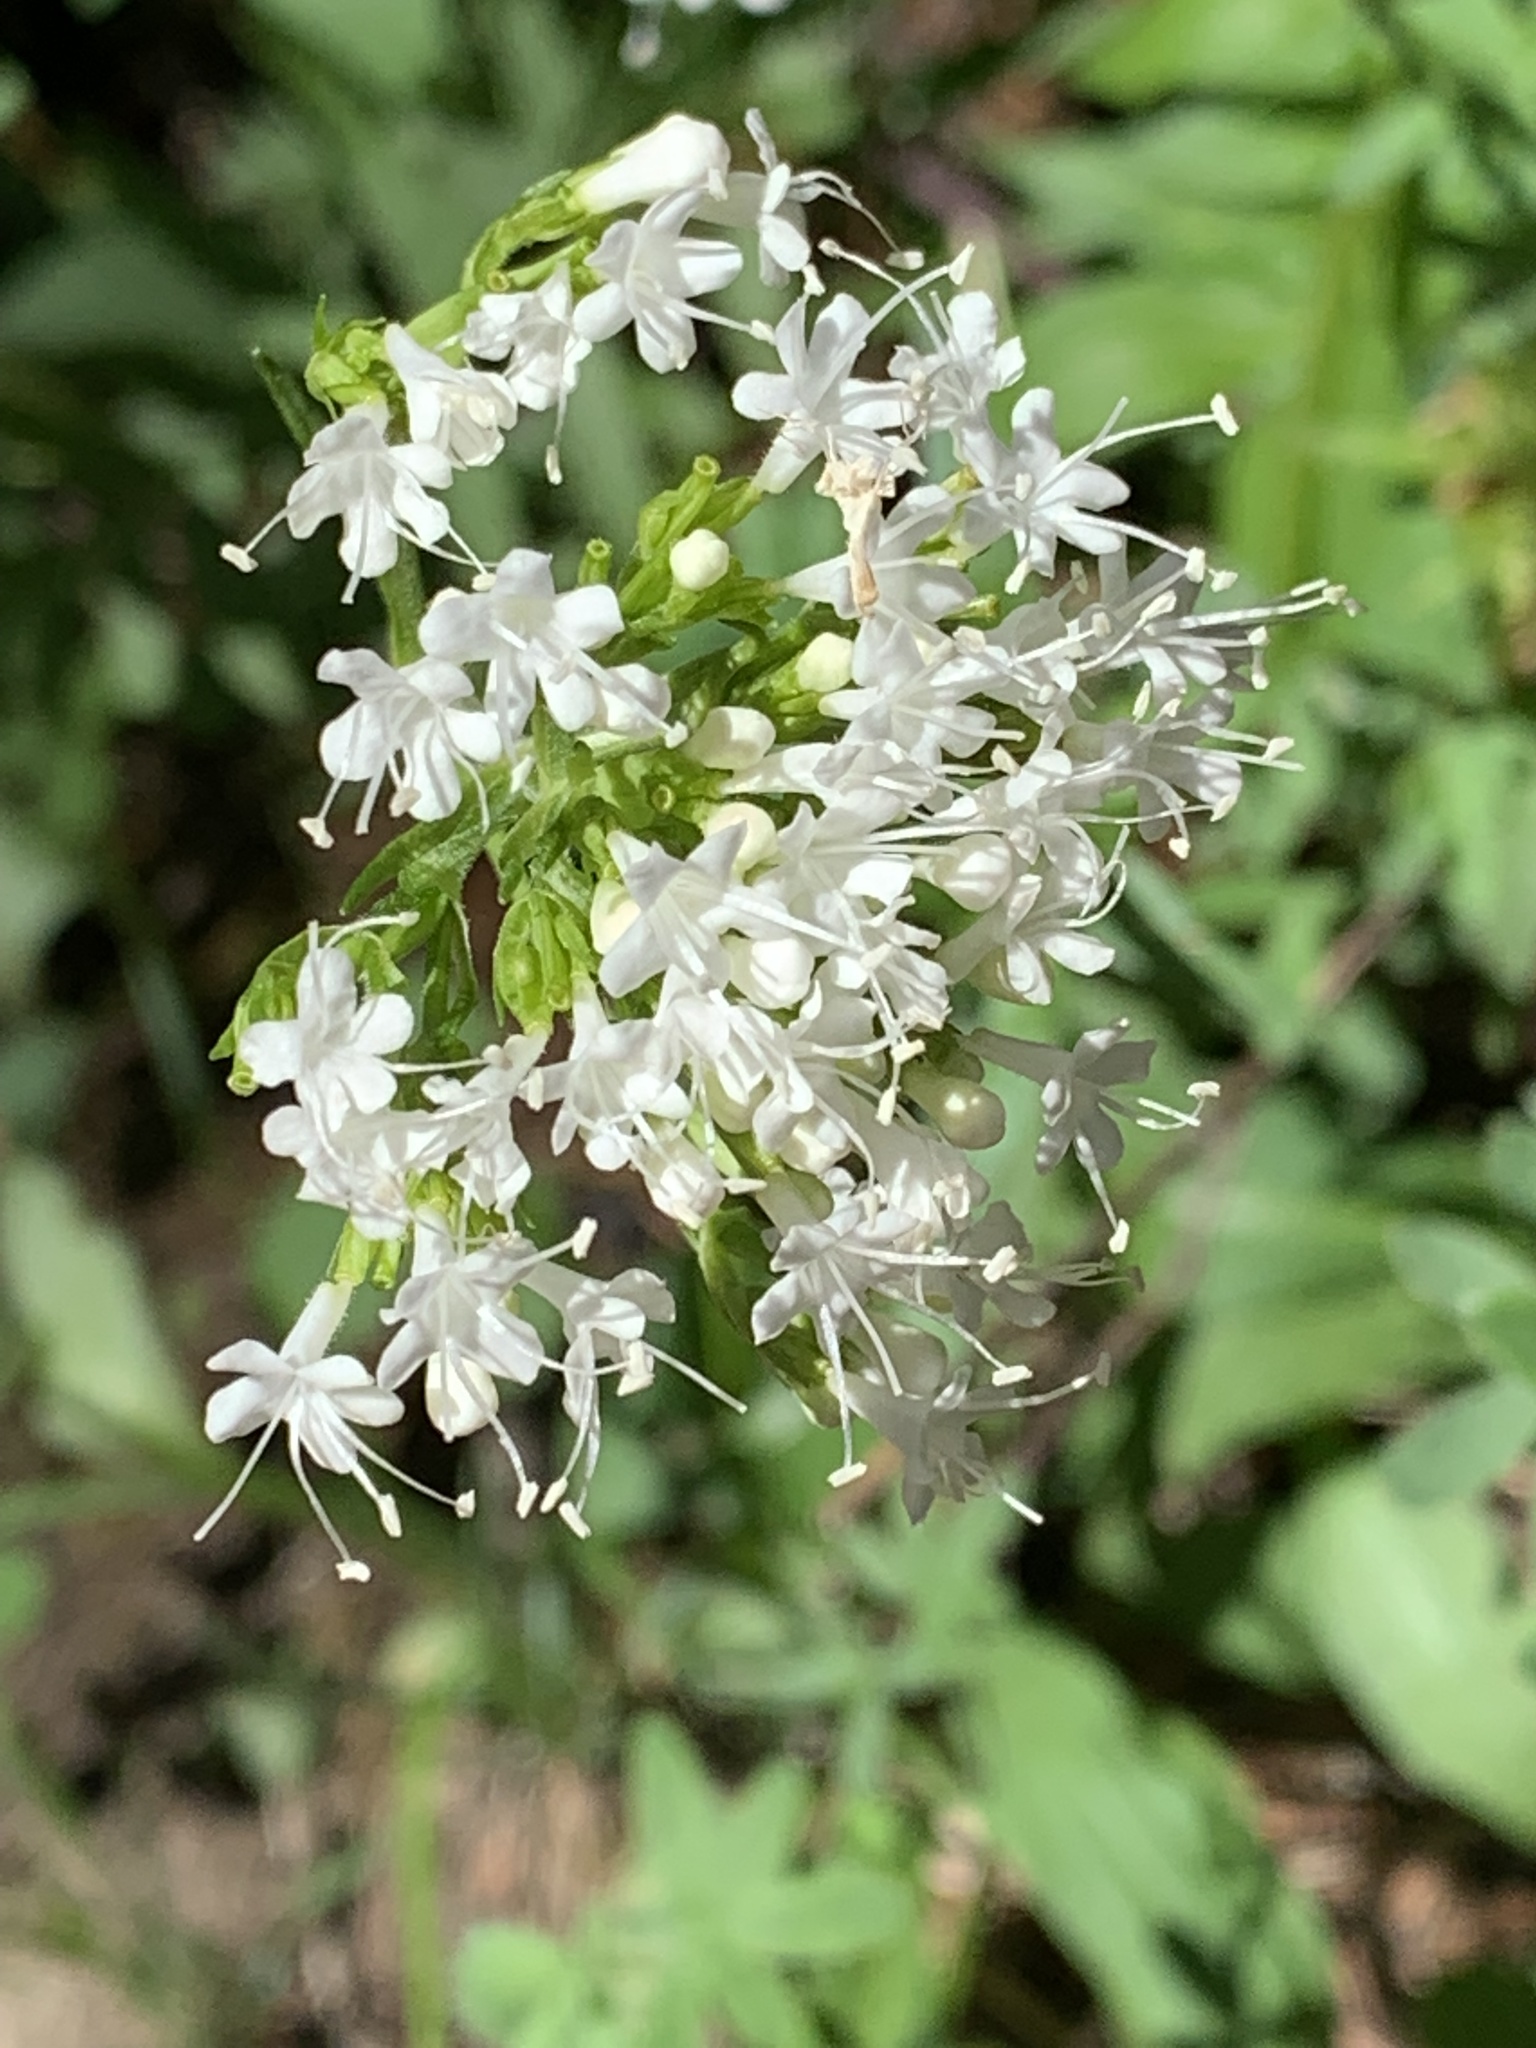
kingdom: Plantae
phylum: Tracheophyta
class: Magnoliopsida
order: Dipsacales
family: Caprifoliaceae
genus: Valeriana
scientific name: Valeriana sitchensis
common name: Pacific valerian
